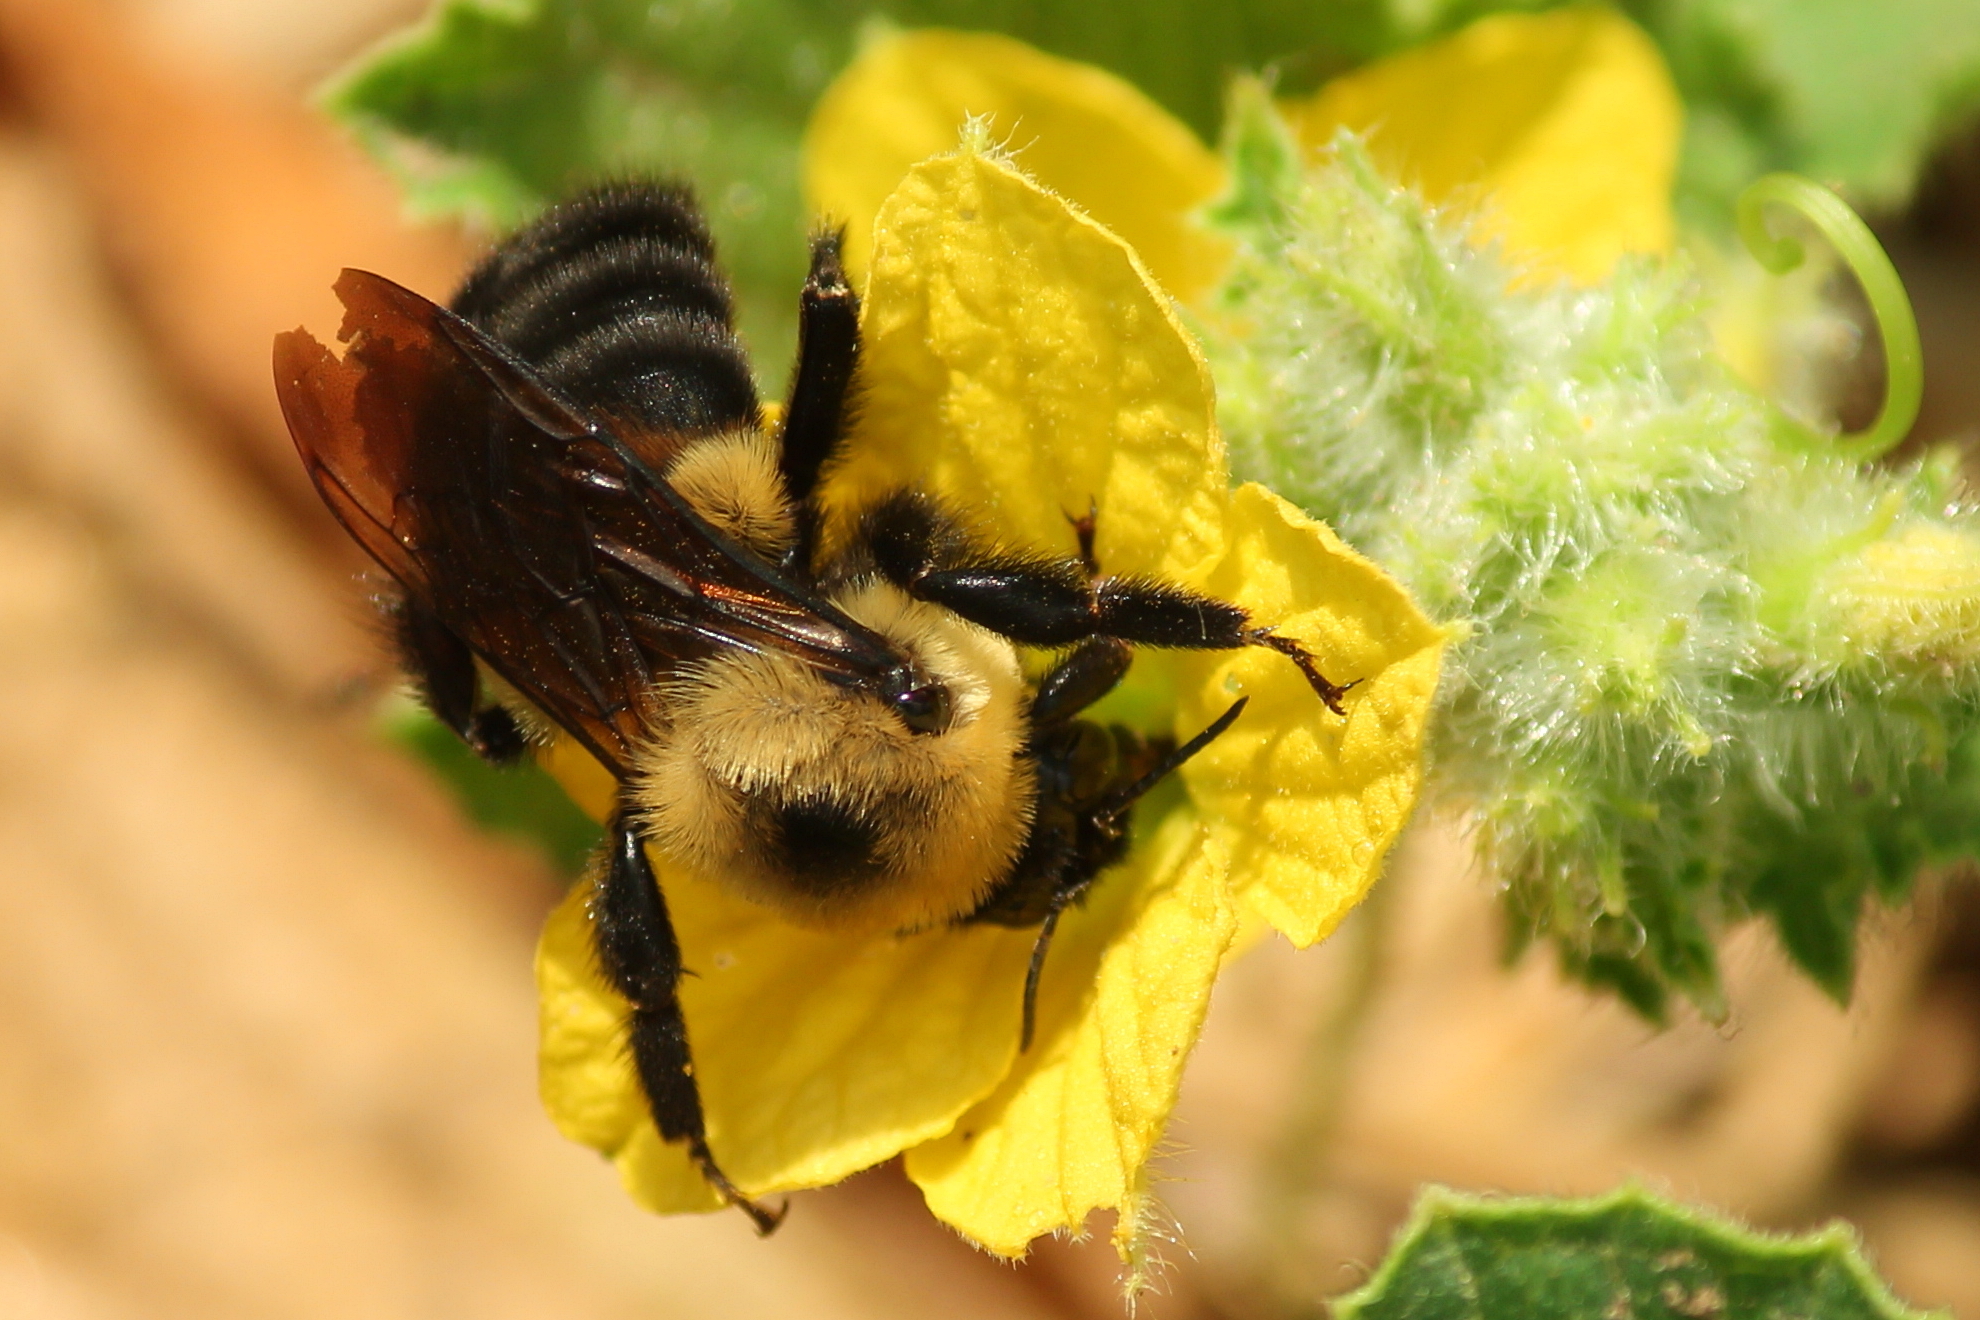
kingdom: Animalia
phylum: Arthropoda
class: Insecta
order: Hymenoptera
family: Apidae
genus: Bombus
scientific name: Bombus griseocollis
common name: Brown-belted bumble bee
